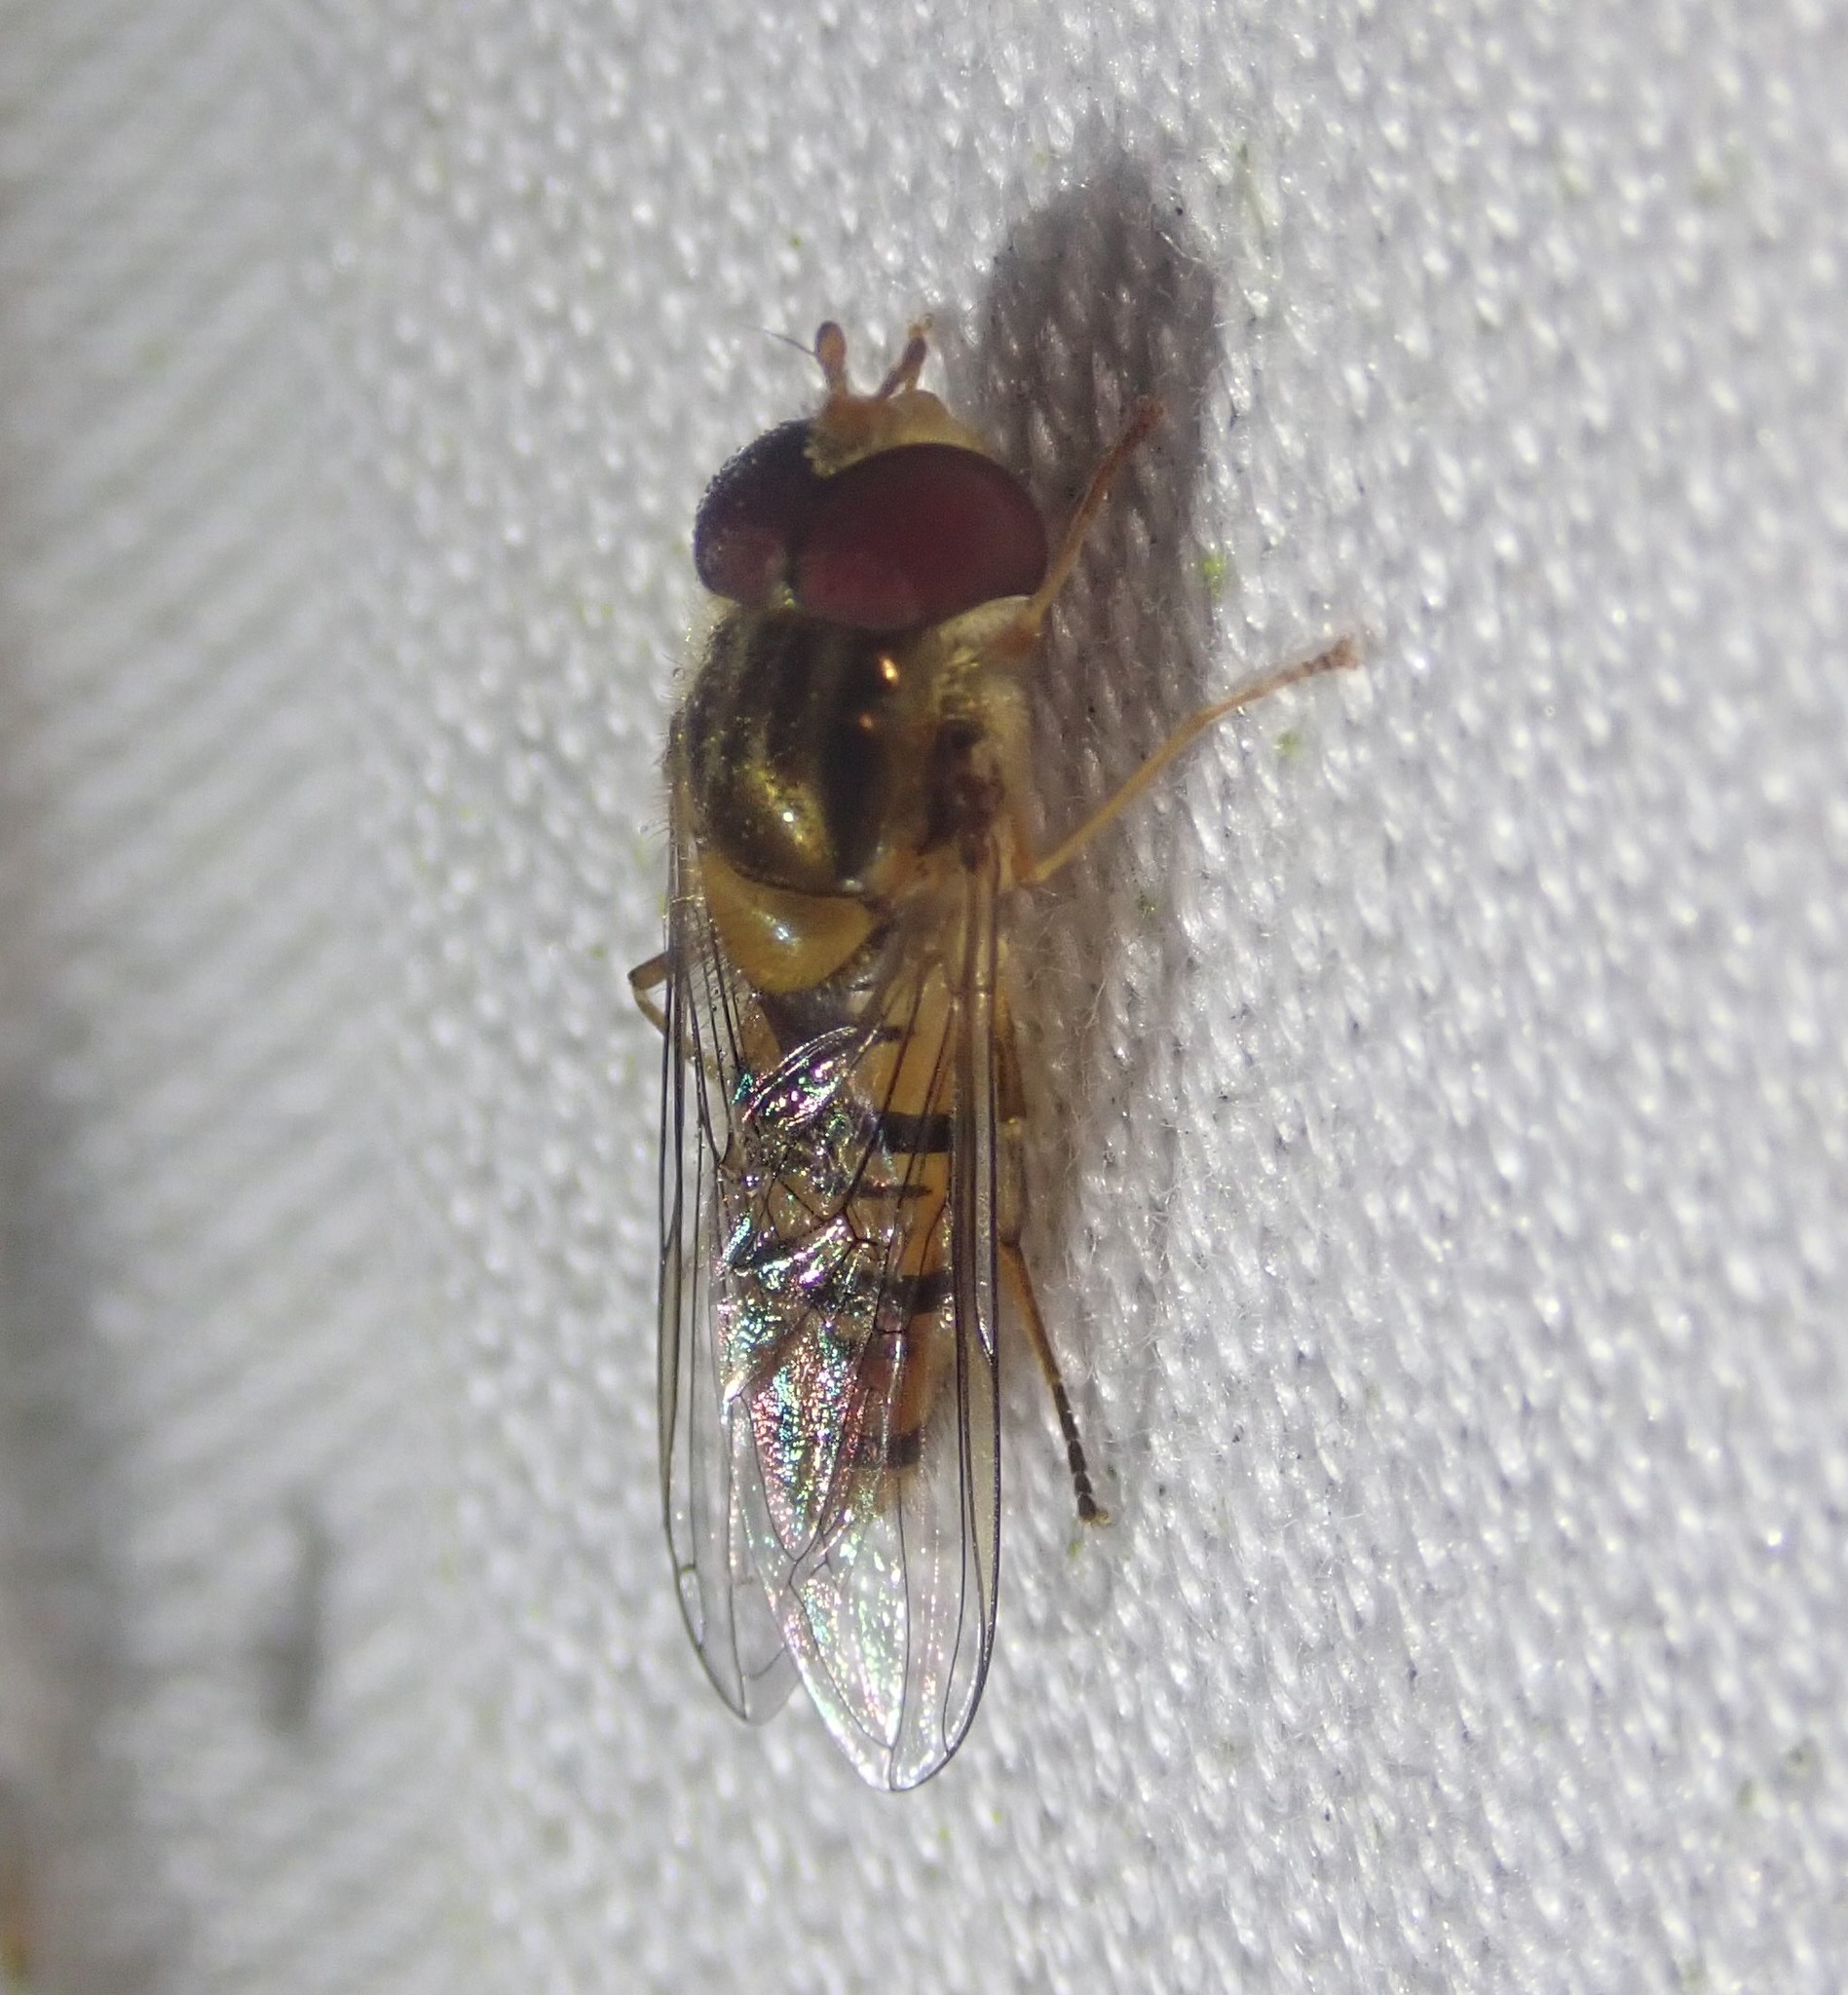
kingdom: Animalia
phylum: Arthropoda
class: Insecta
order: Diptera
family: Syrphidae
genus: Episyrphus
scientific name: Episyrphus balteatus
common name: Marmalade hoverfly
